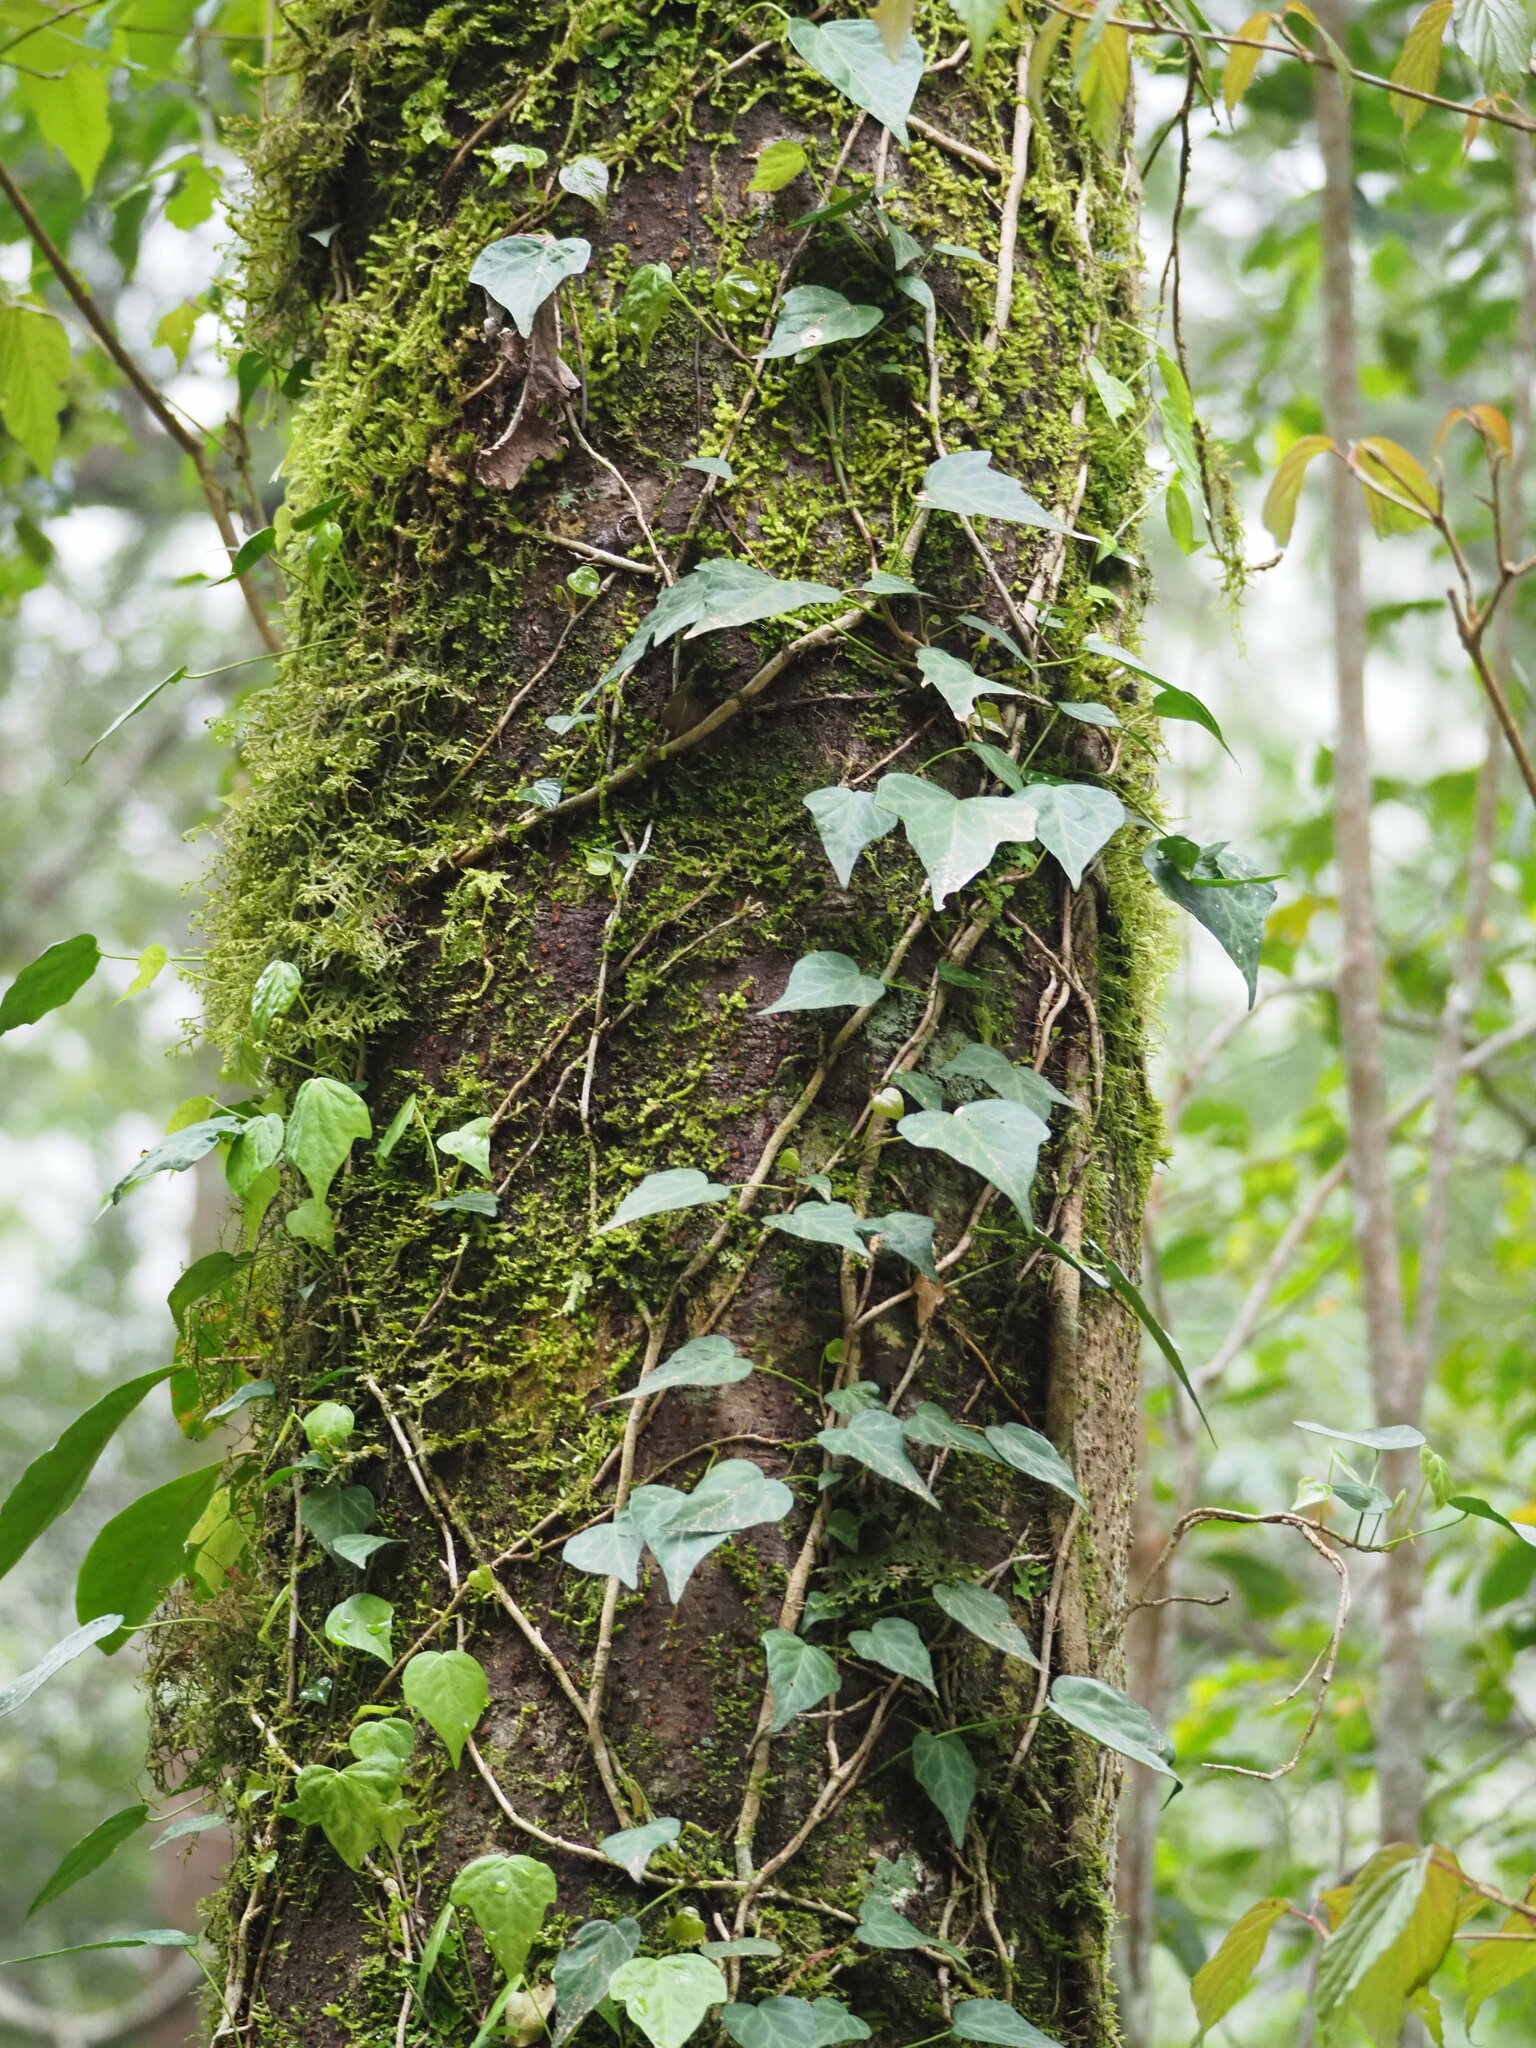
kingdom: Plantae
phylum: Tracheophyta
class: Magnoliopsida
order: Apiales
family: Araliaceae
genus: Hedera
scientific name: Hedera rhombea
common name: Japanese ivy
